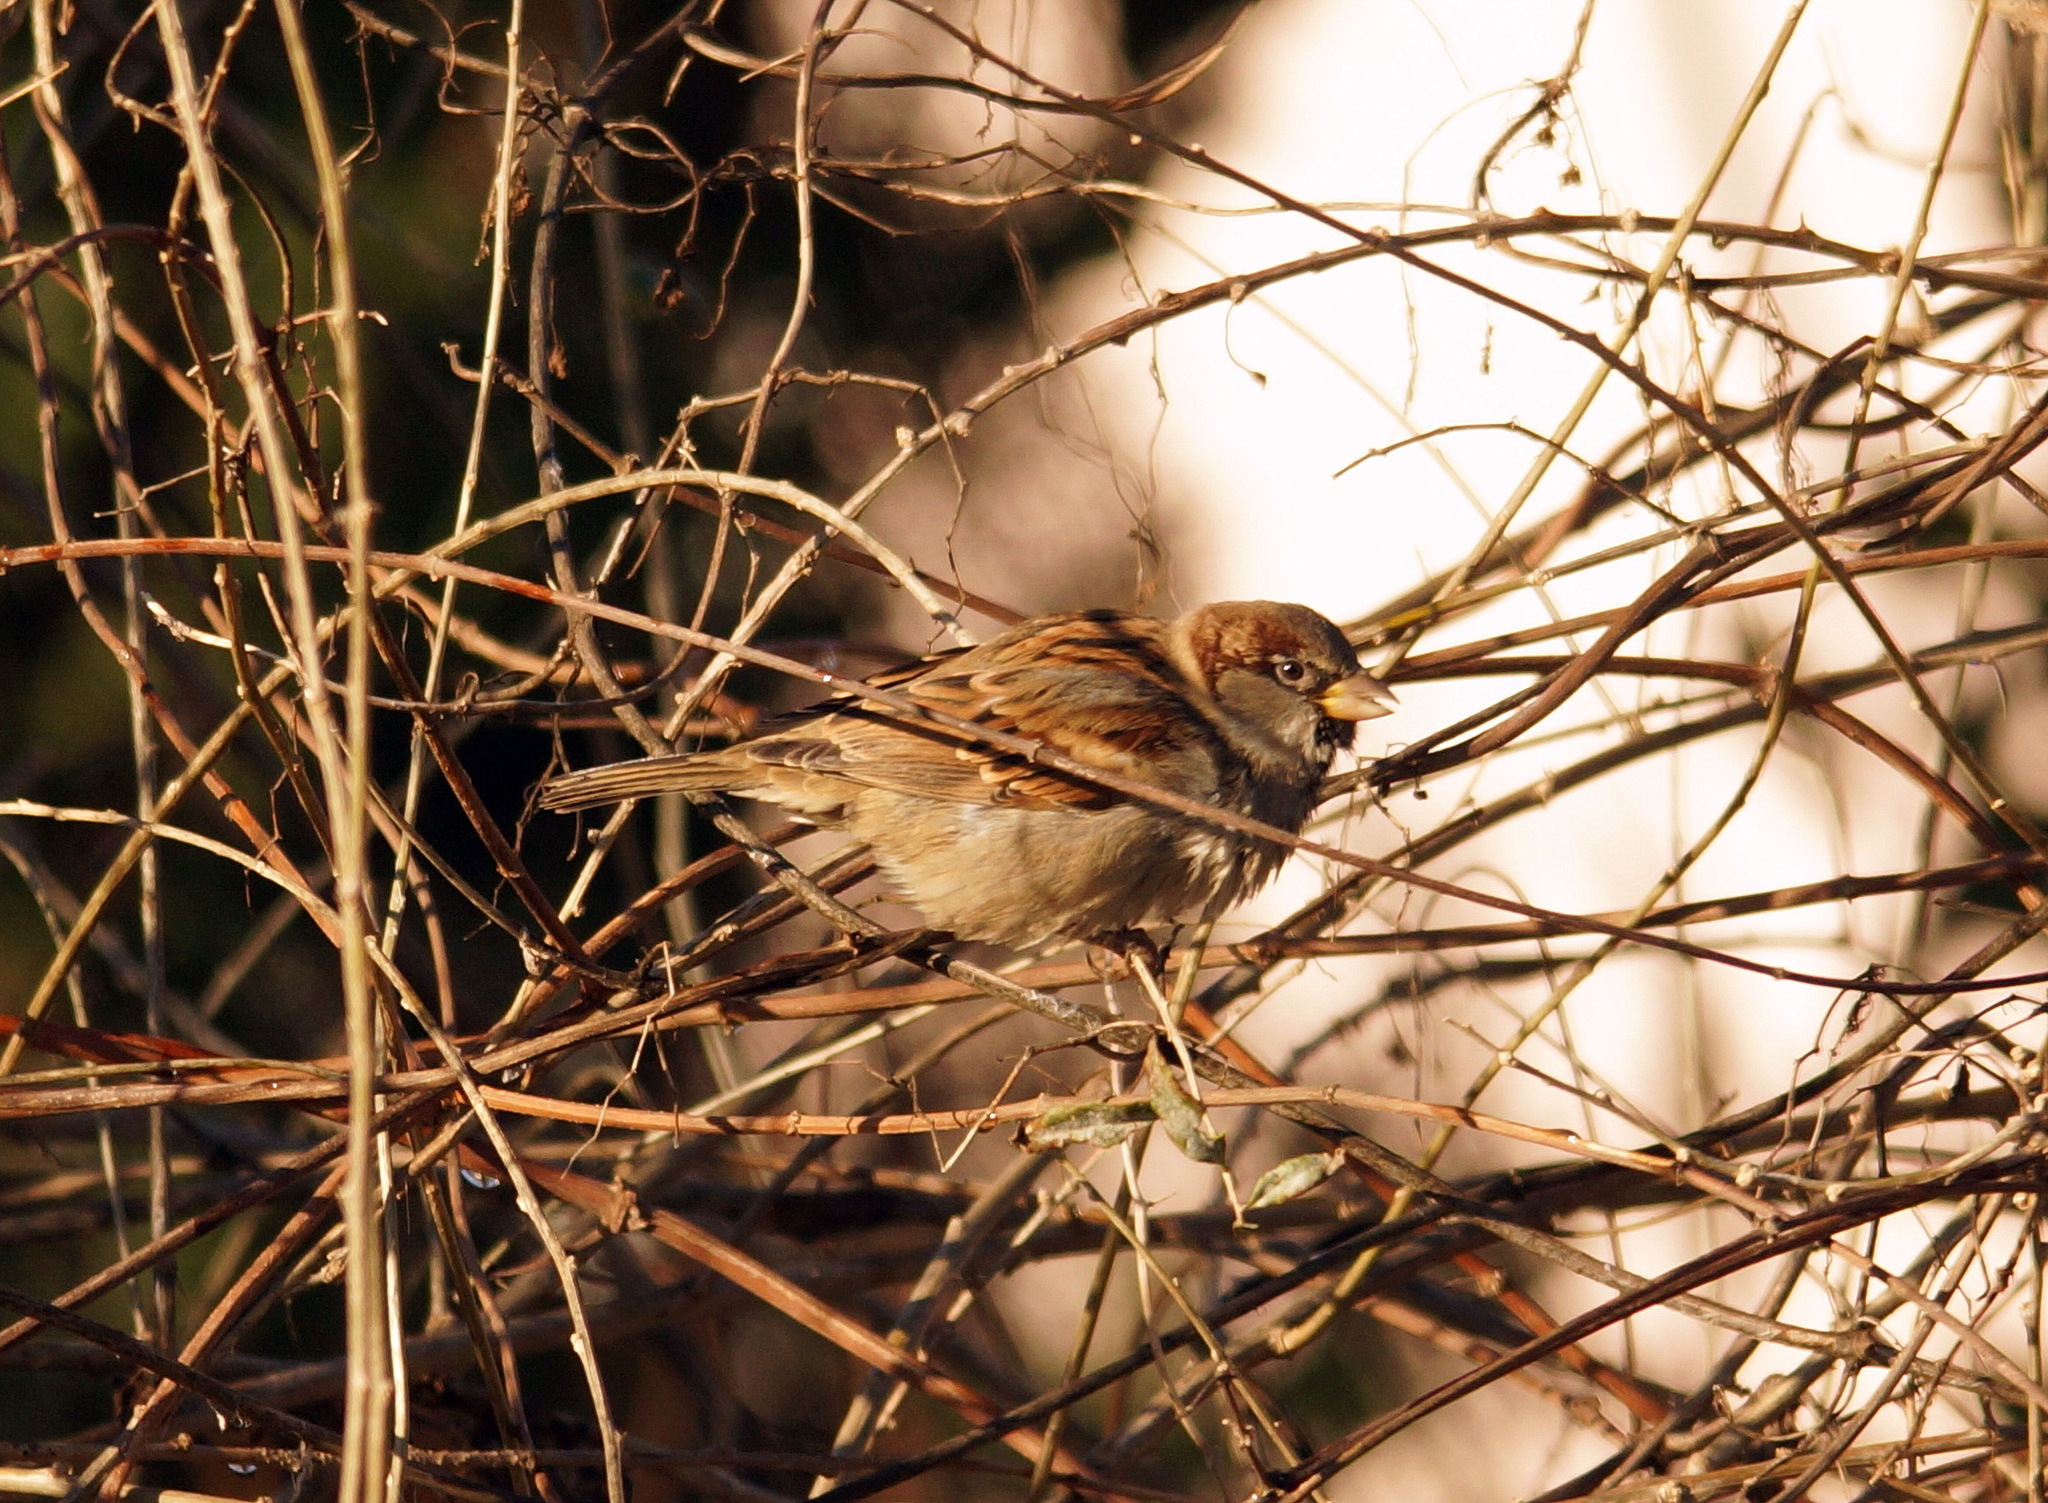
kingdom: Animalia
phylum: Chordata
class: Aves
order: Passeriformes
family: Passeridae
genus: Passer
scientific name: Passer domesticus
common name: House sparrow
